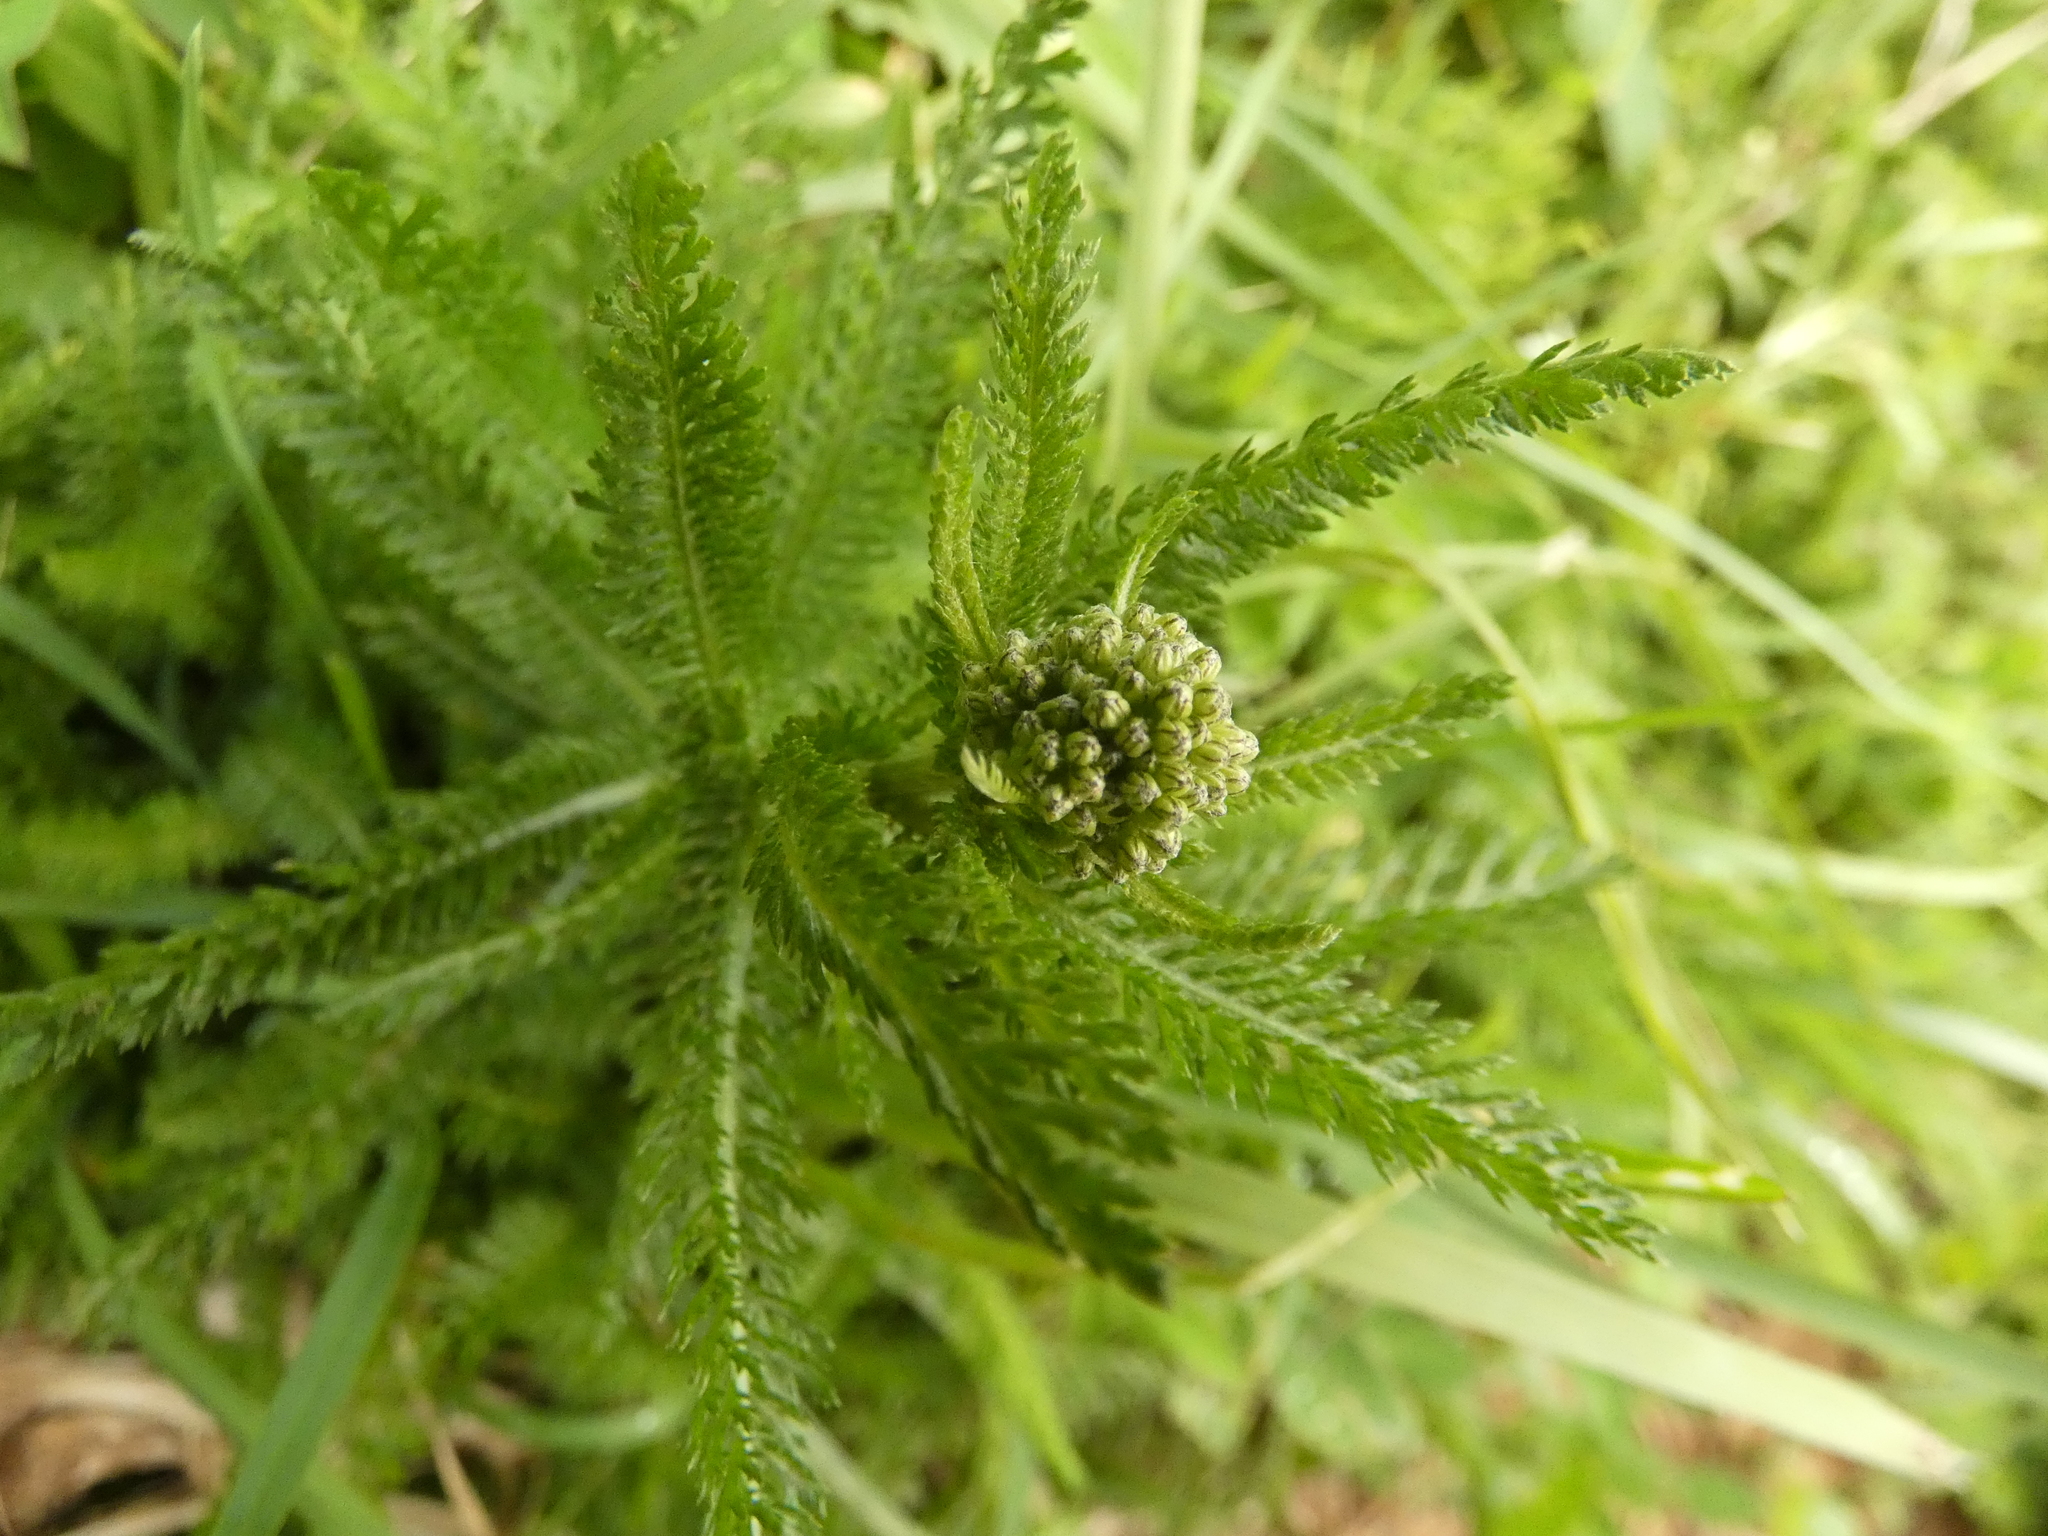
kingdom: Plantae
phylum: Tracheophyta
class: Magnoliopsida
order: Asterales
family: Asteraceae
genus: Achillea
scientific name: Achillea millefolium
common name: Yarrow
